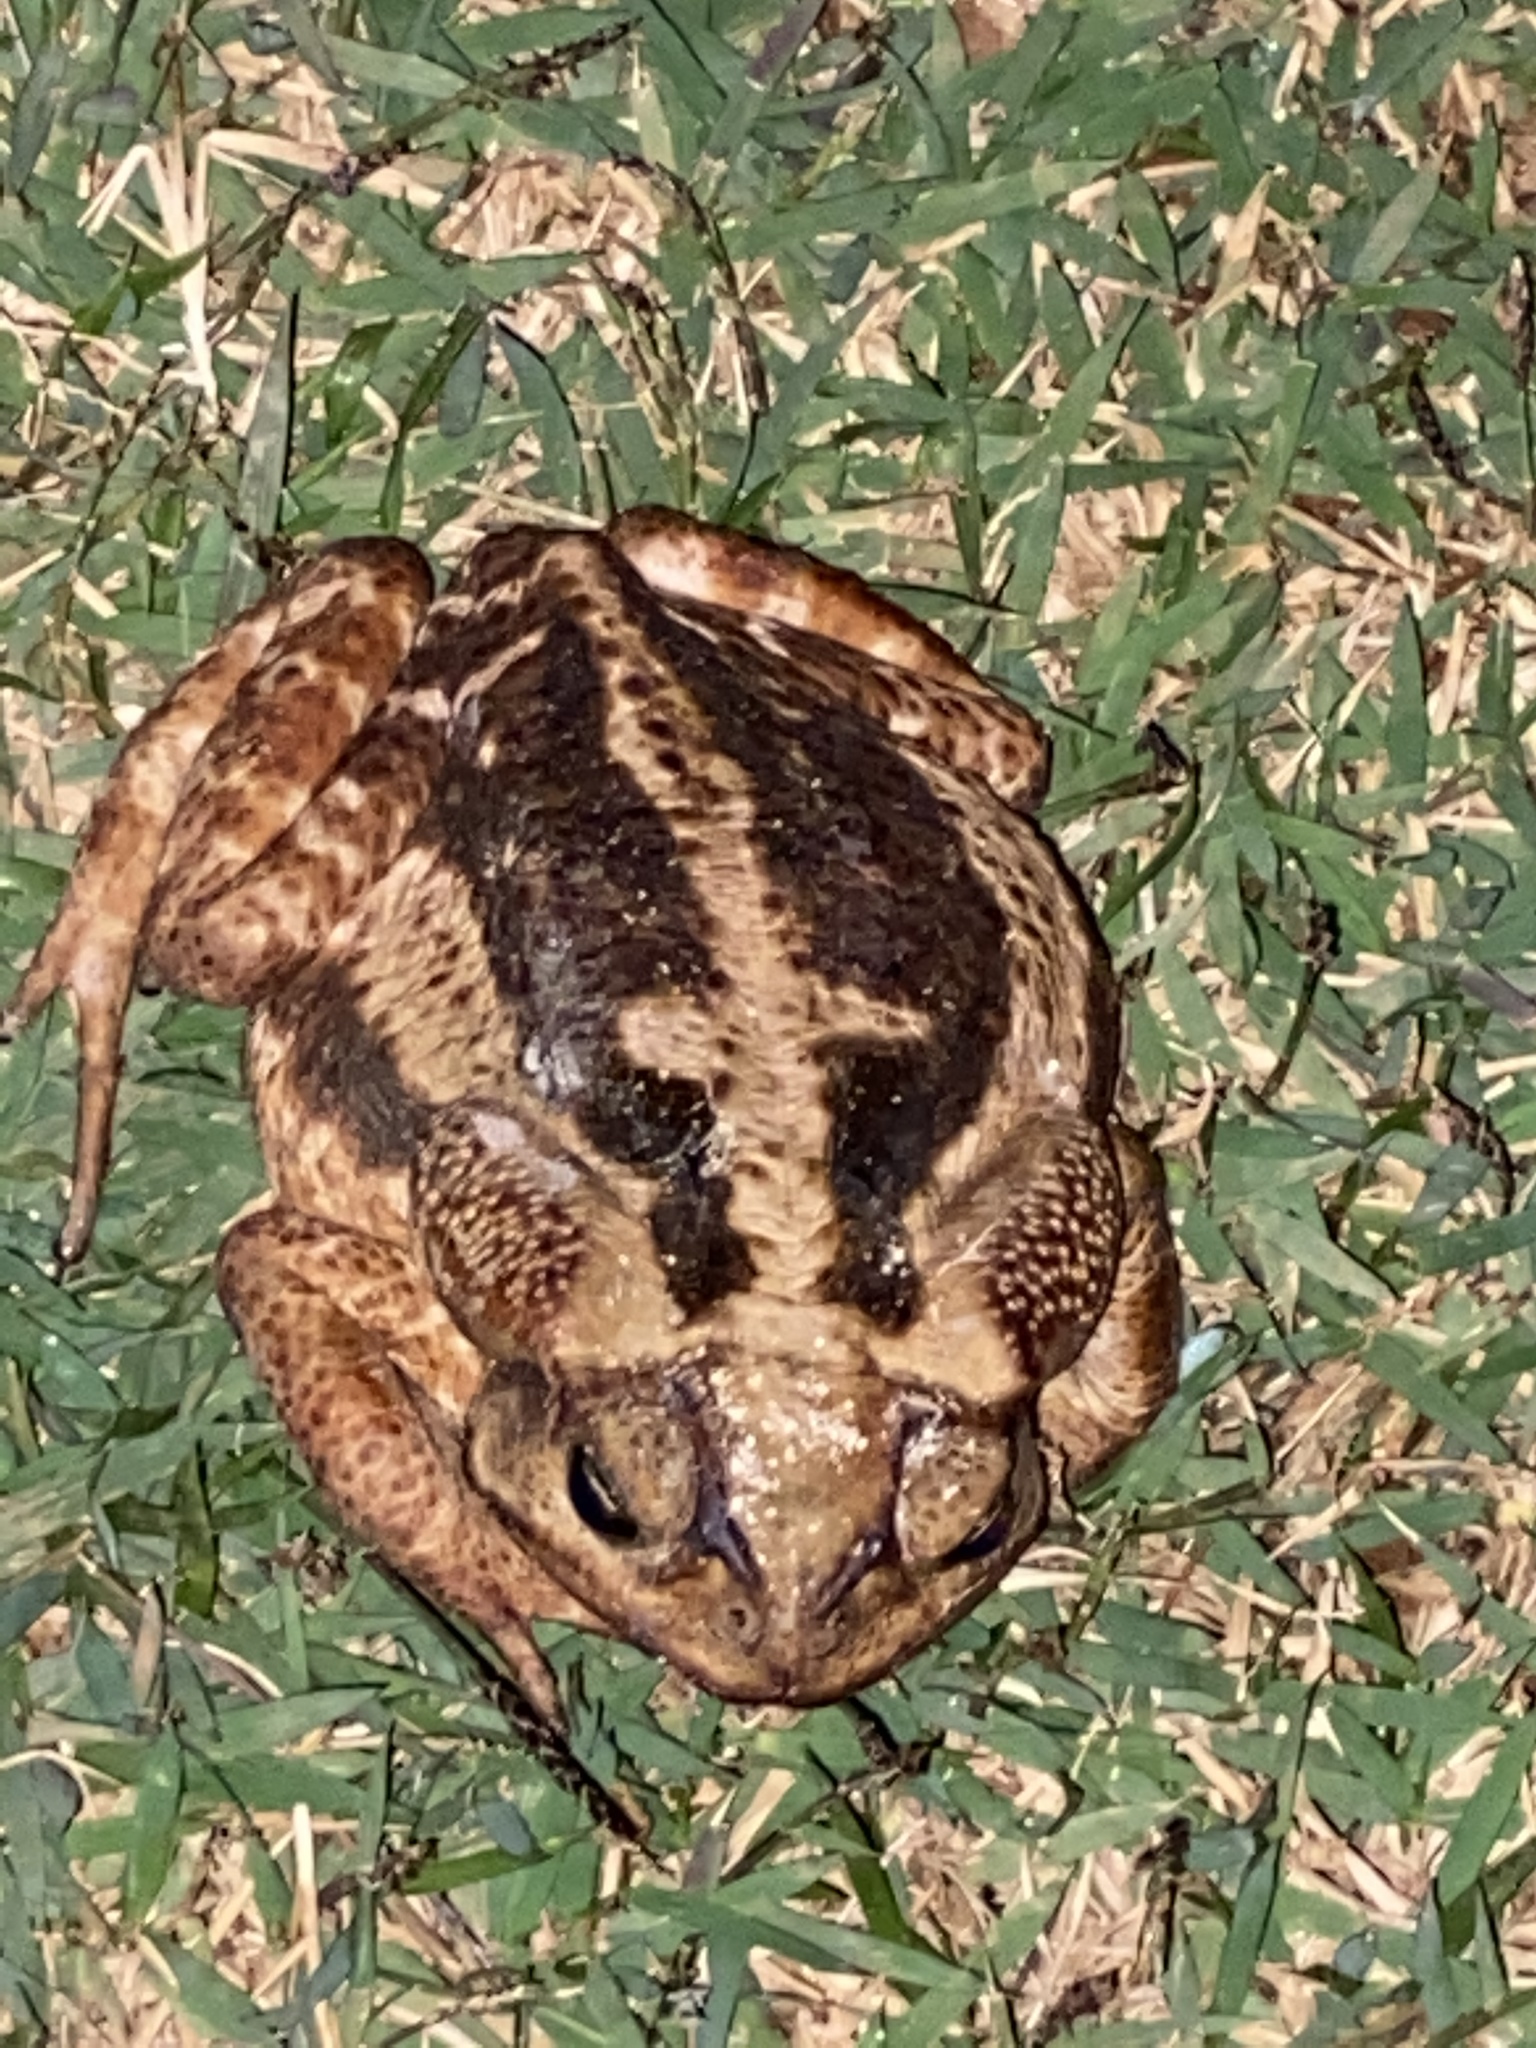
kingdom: Animalia
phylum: Chordata
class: Amphibia
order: Anura
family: Bufonidae
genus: Rhinella
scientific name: Rhinella icterica
